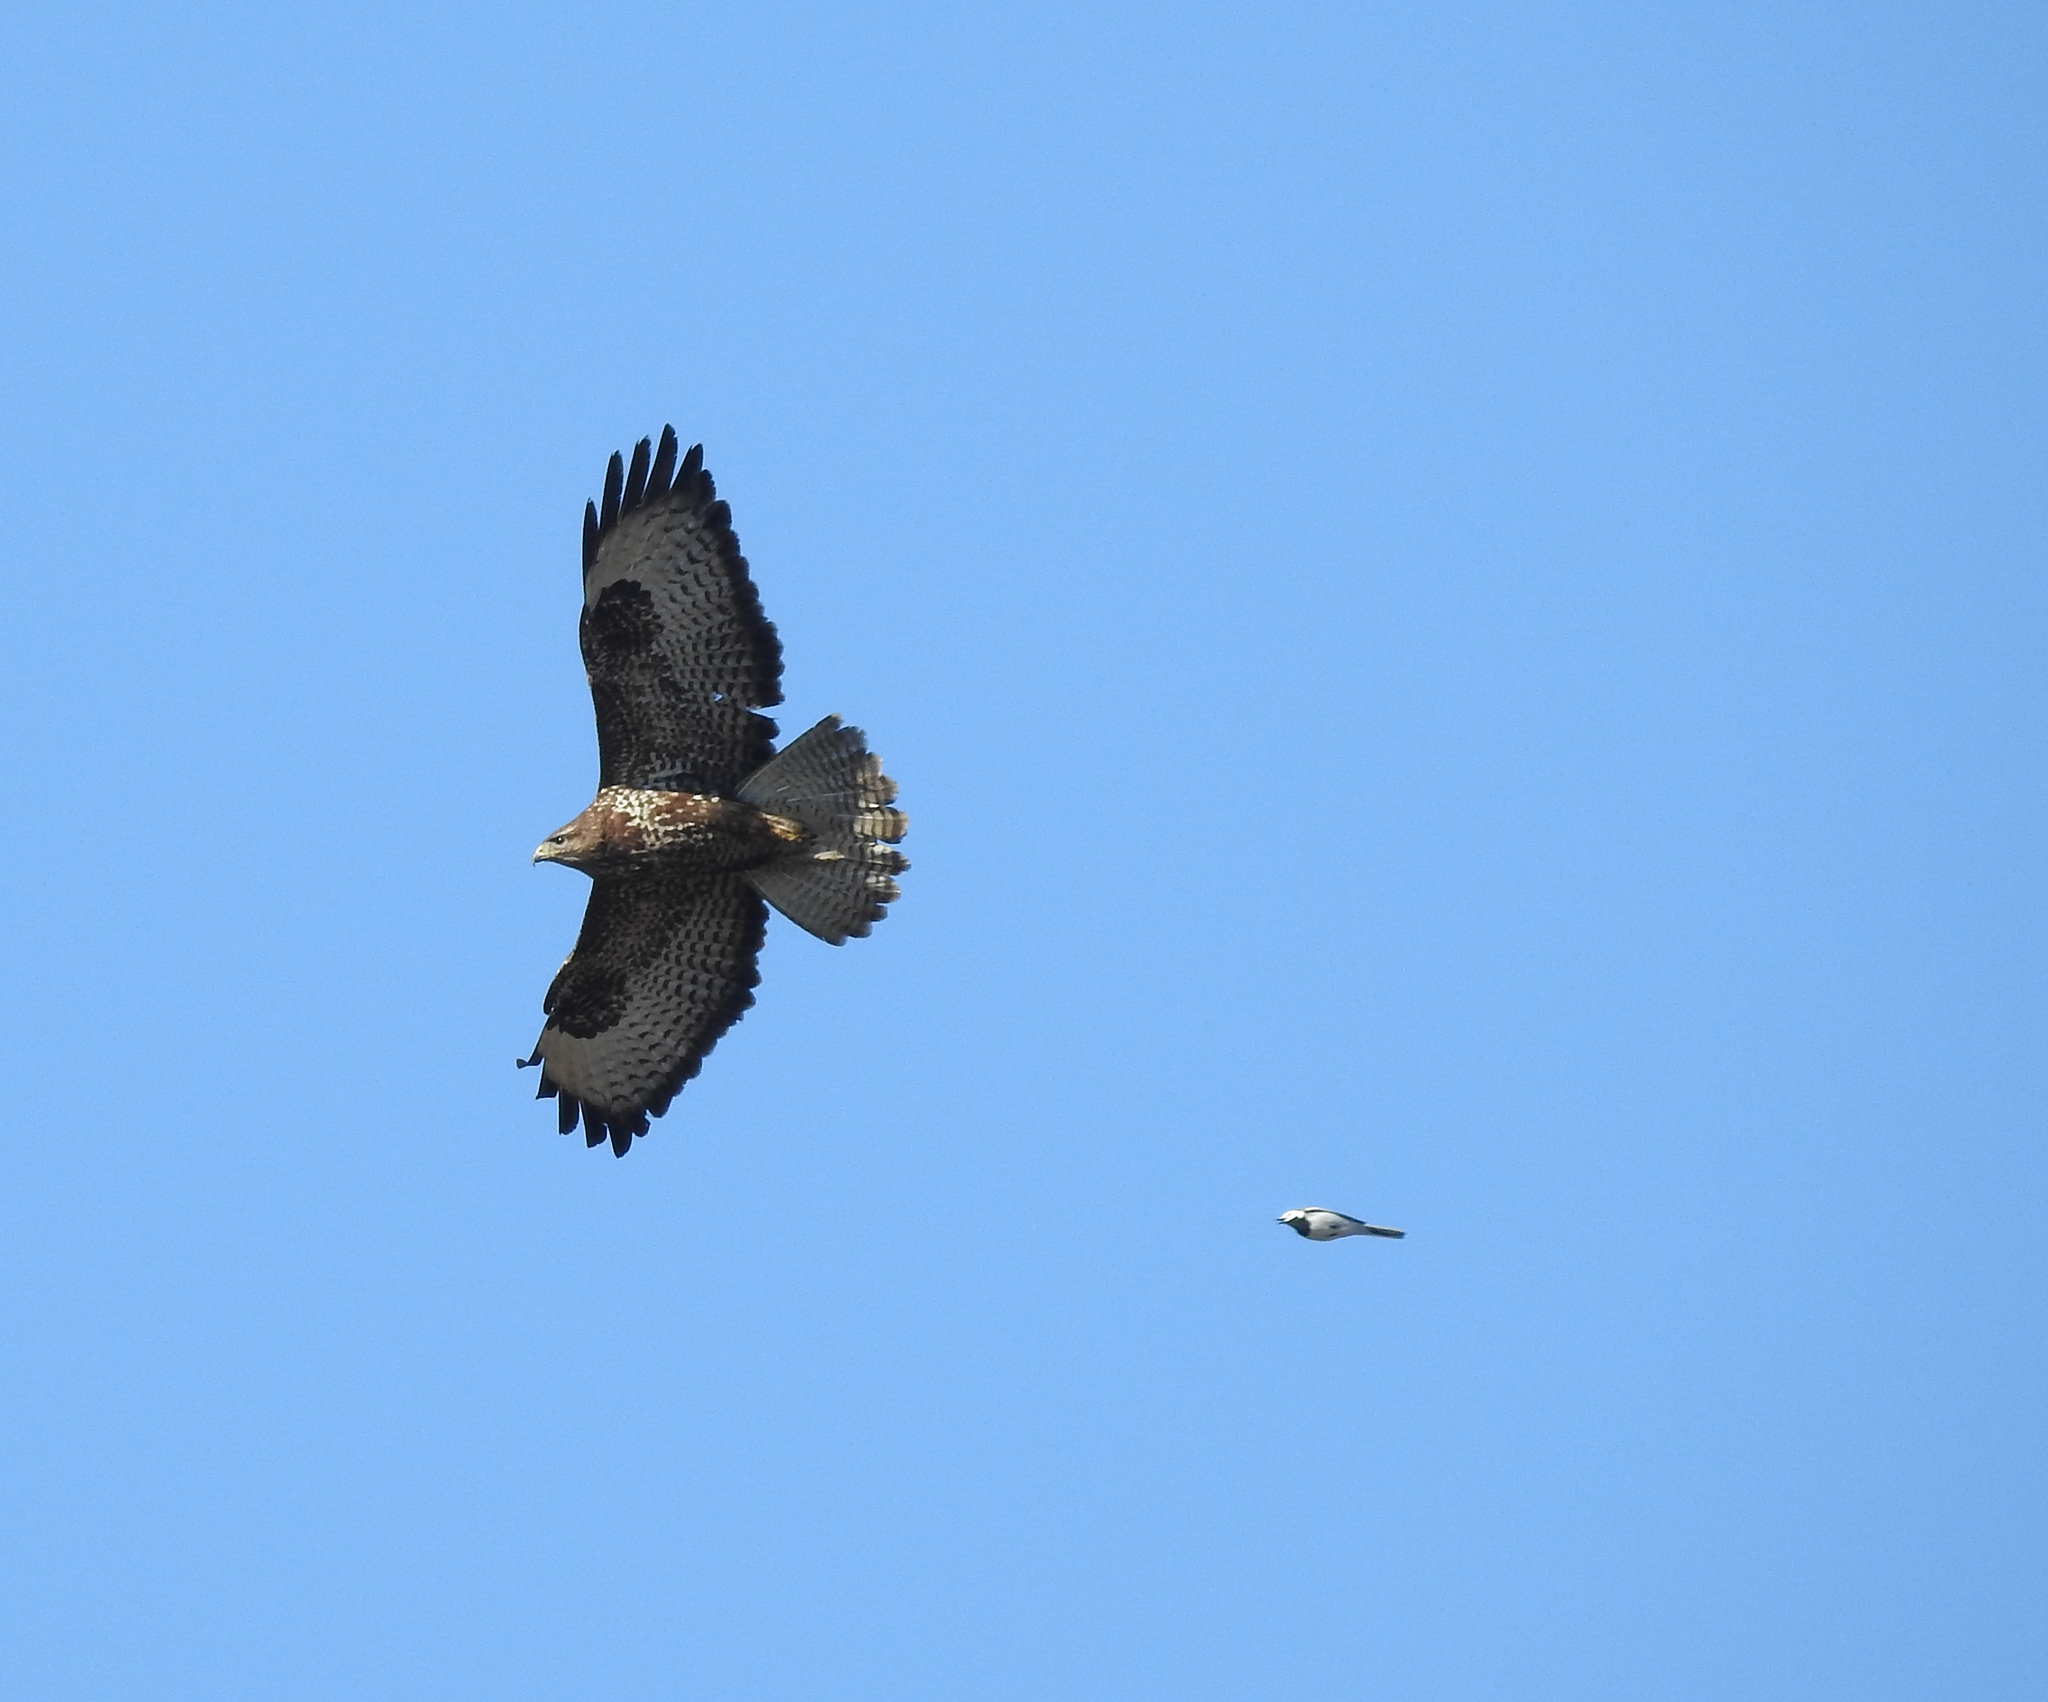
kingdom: Animalia
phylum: Chordata
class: Aves
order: Accipitriformes
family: Accipitridae
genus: Buteo
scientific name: Buteo buteo
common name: Common buzzard
